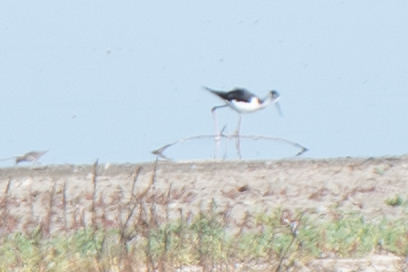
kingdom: Animalia
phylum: Chordata
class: Aves
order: Charadriiformes
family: Recurvirostridae
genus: Himantopus
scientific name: Himantopus mexicanus
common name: Black-necked stilt
